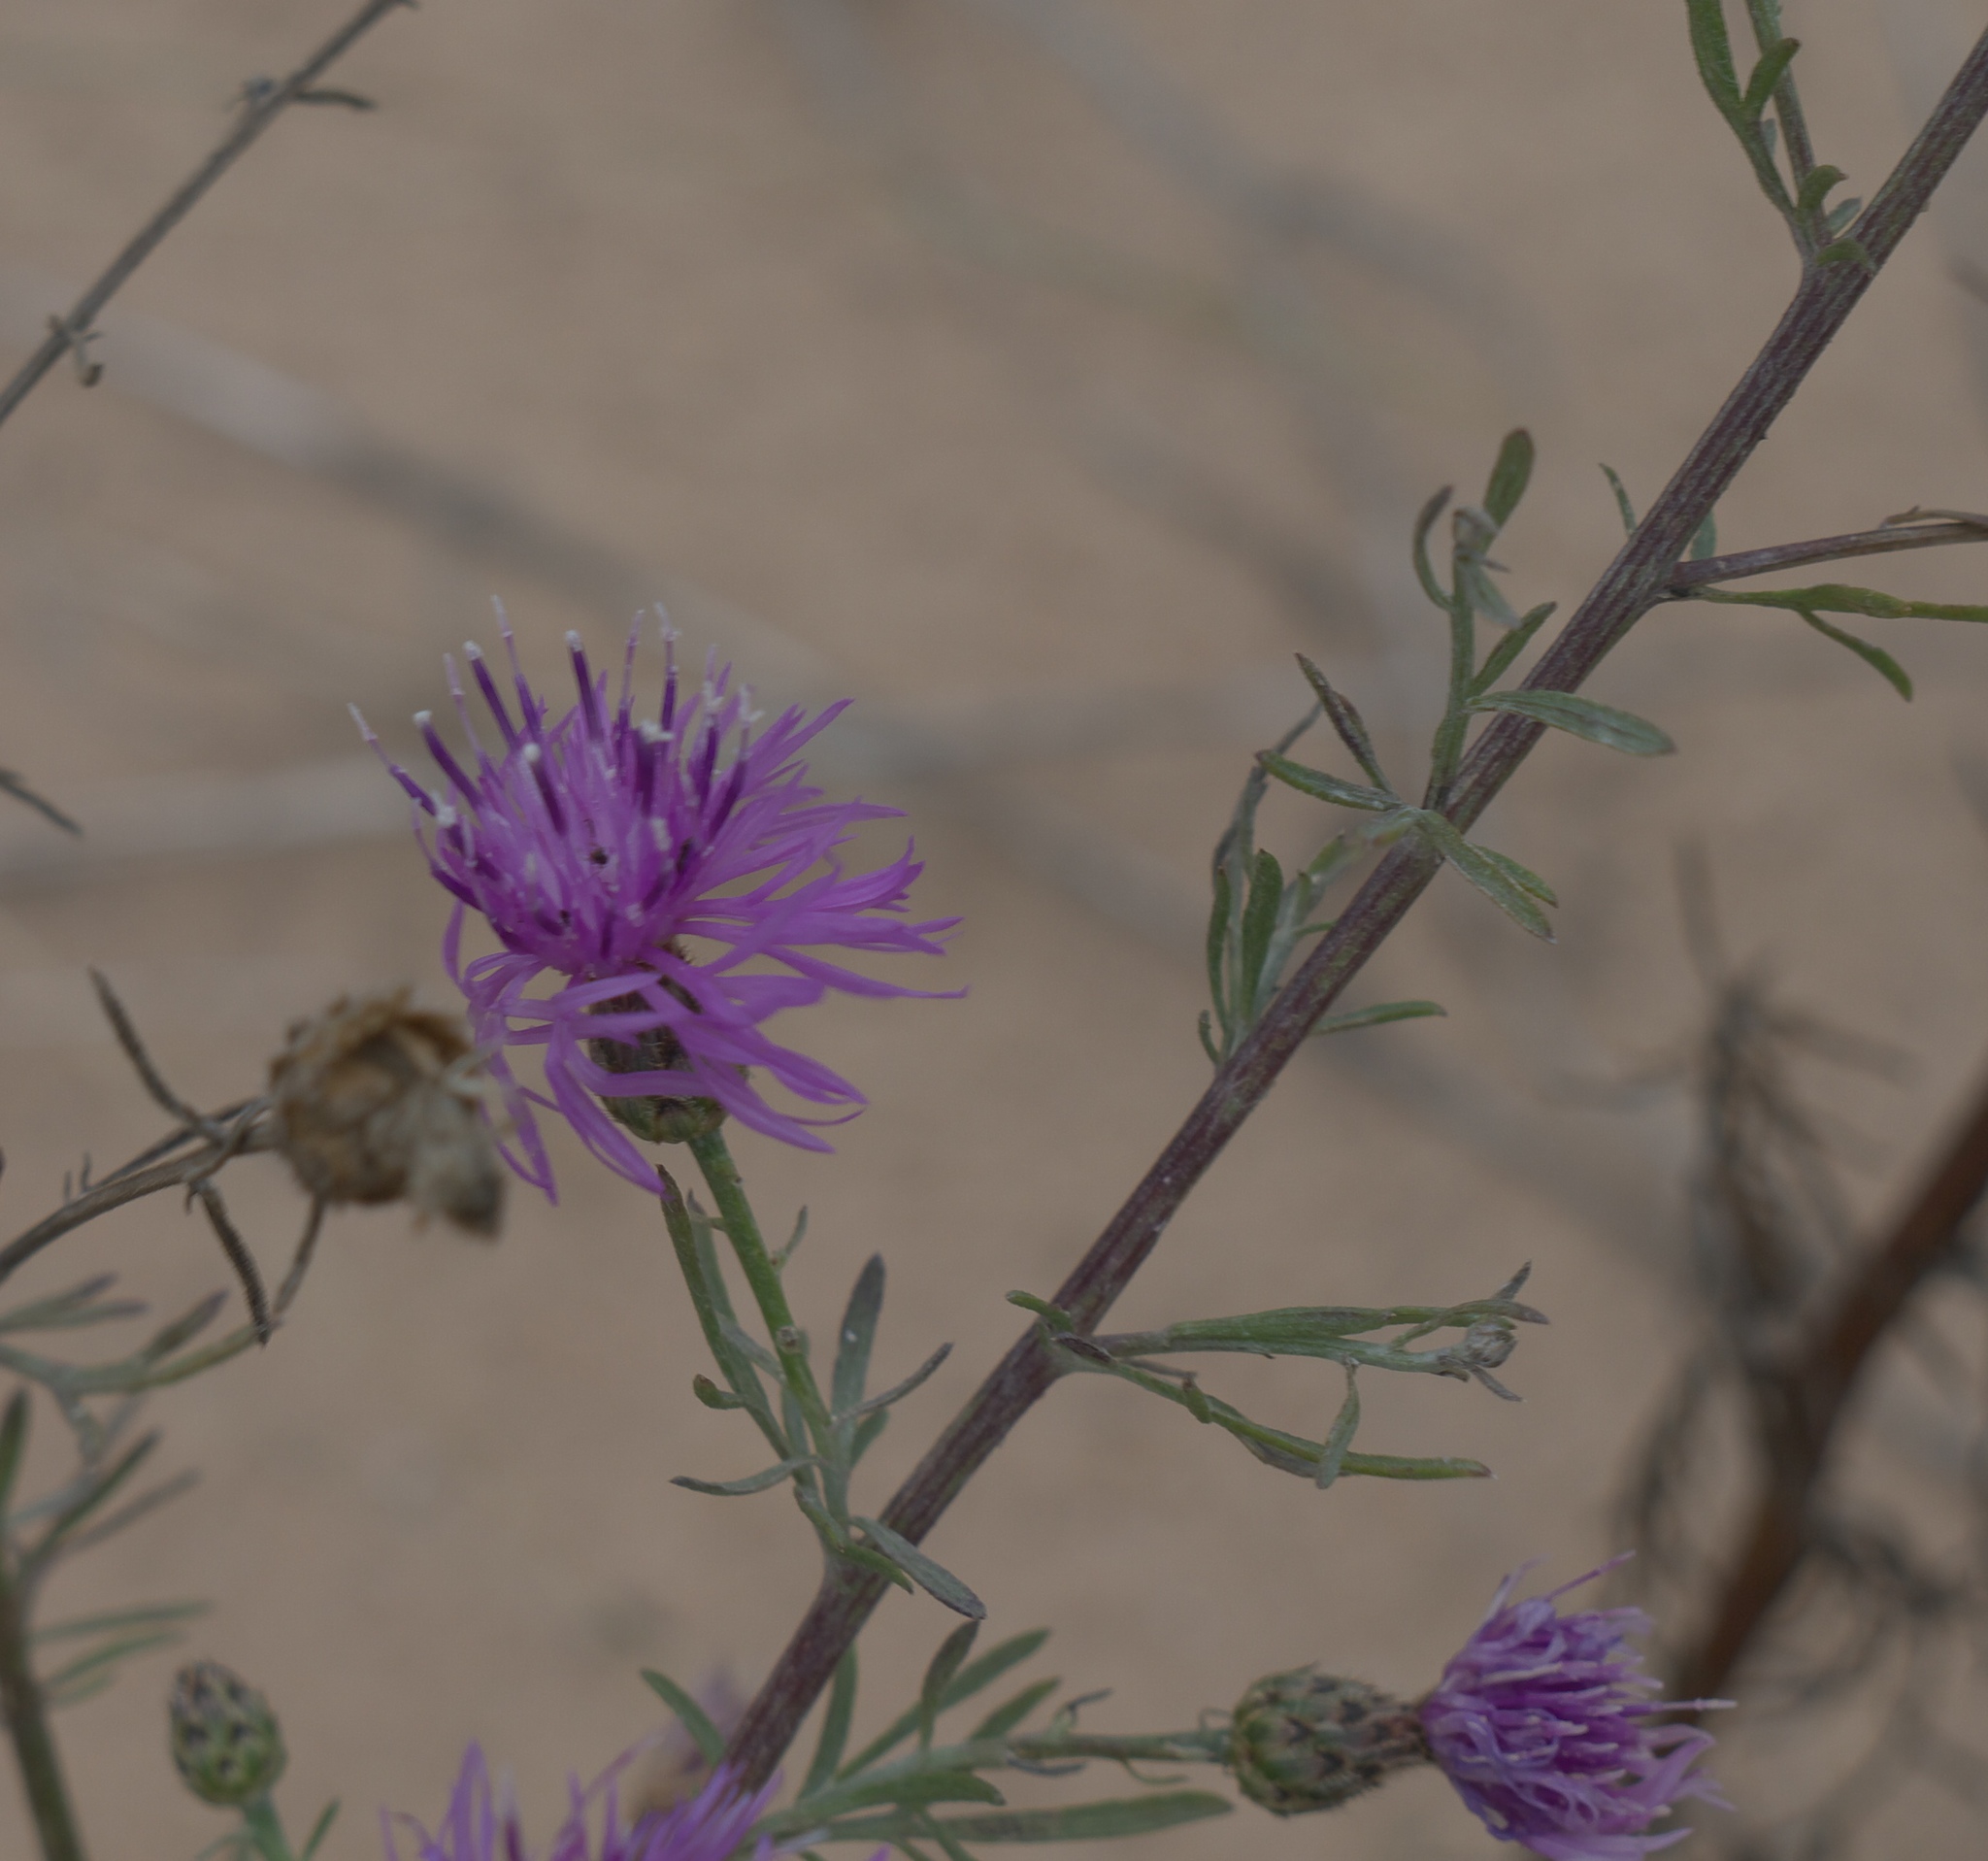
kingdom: Plantae
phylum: Tracheophyta
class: Magnoliopsida
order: Asterales
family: Asteraceae
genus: Centaurea
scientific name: Centaurea stoebe
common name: Spotted knapweed
